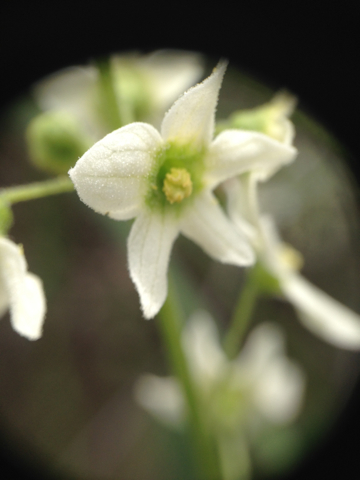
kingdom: Plantae
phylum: Tracheophyta
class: Magnoliopsida
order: Cucurbitales
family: Cucurbitaceae
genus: Marah
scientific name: Marah macrocarpa
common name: Cucamonga manroot
